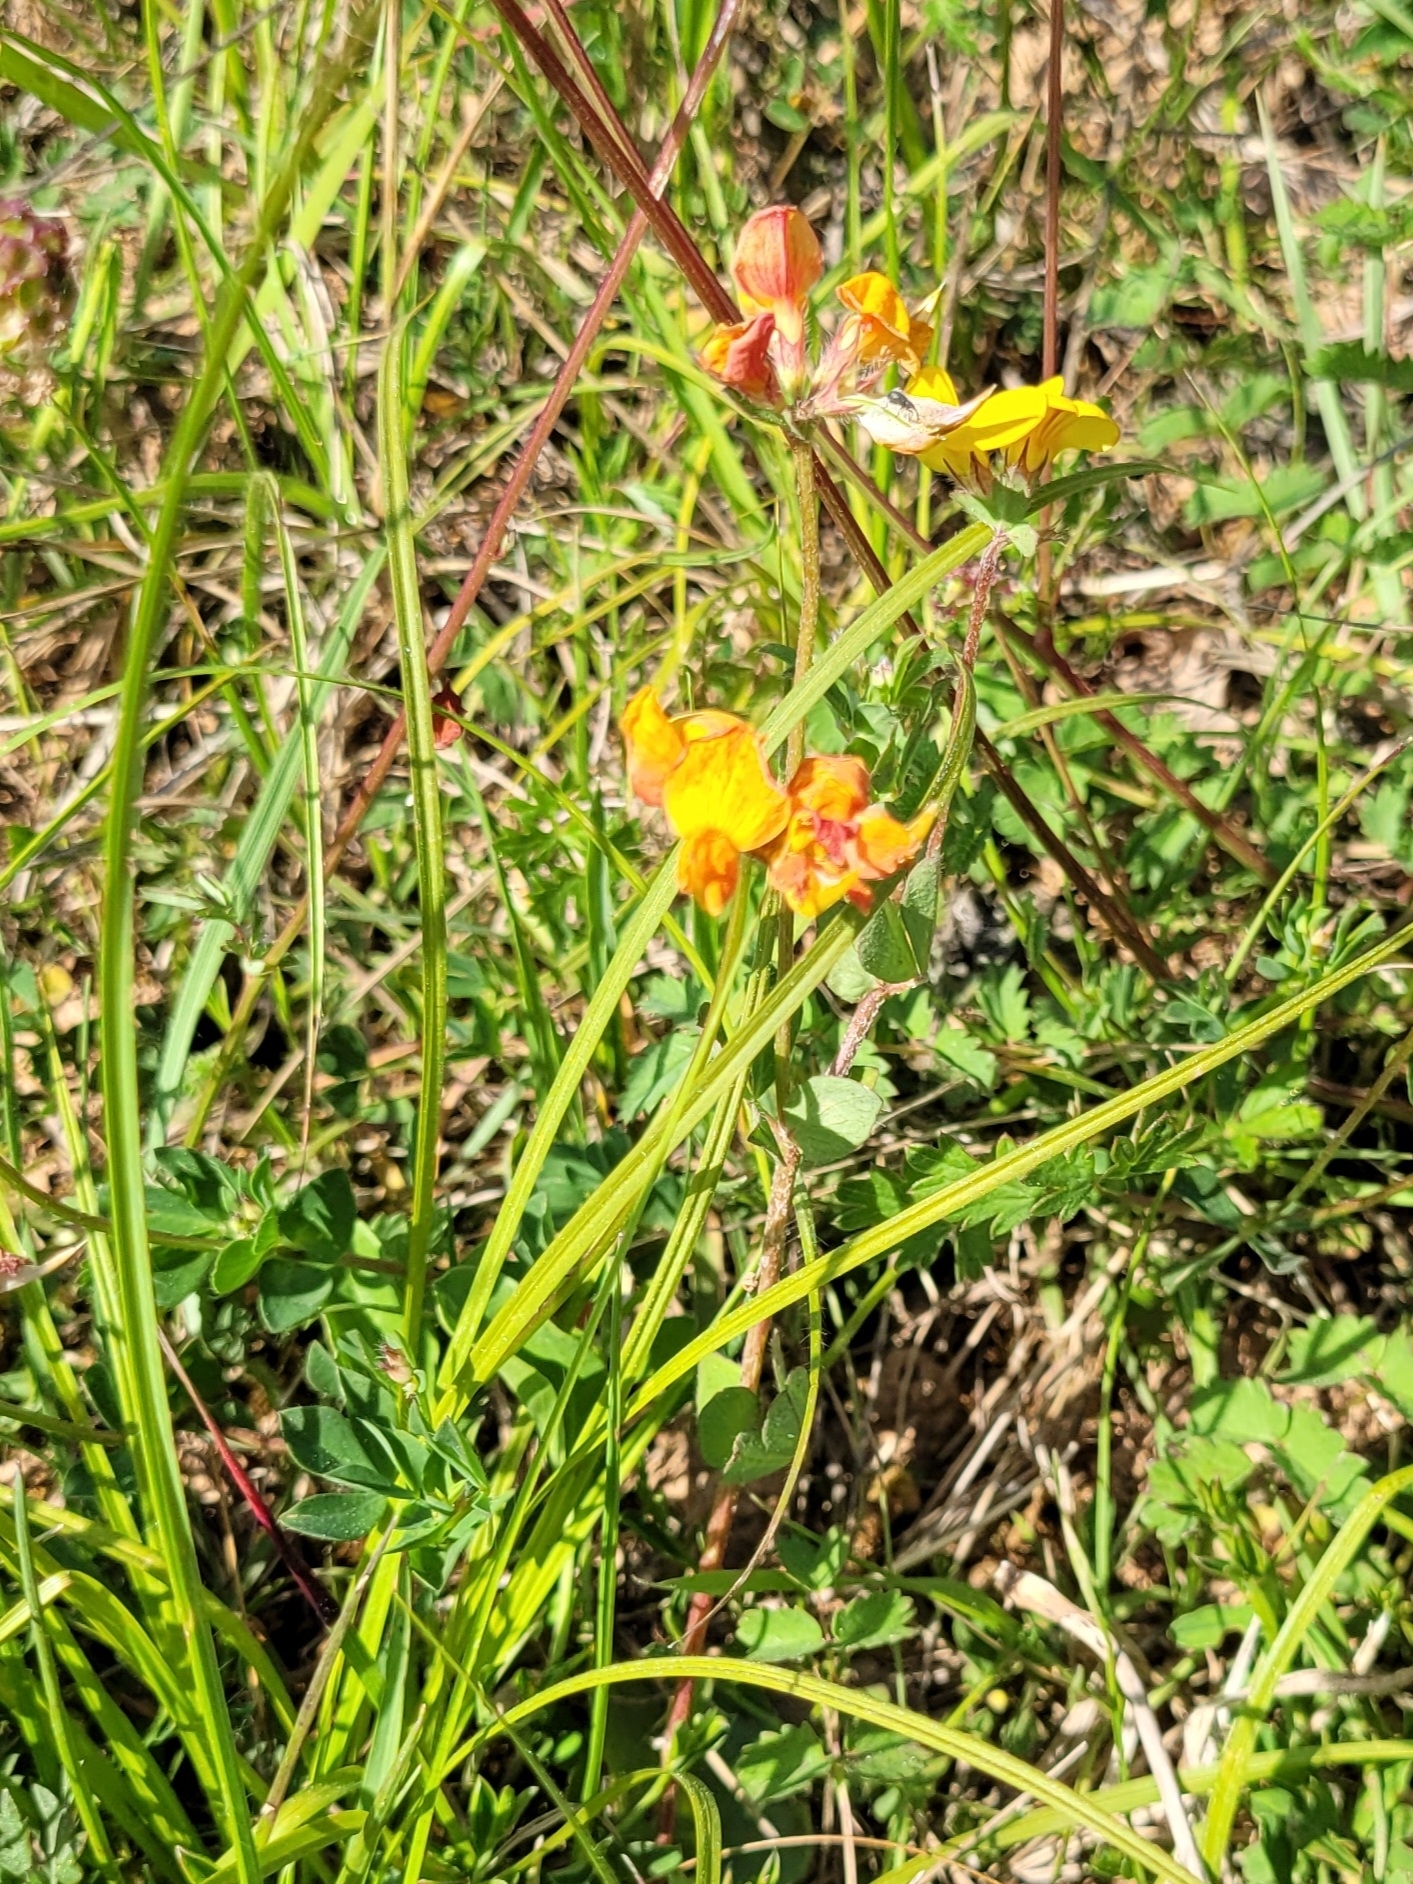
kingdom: Plantae
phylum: Tracheophyta
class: Magnoliopsida
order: Fabales
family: Fabaceae
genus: Lotus
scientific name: Lotus corniculatus
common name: Common bird's-foot-trefoil
